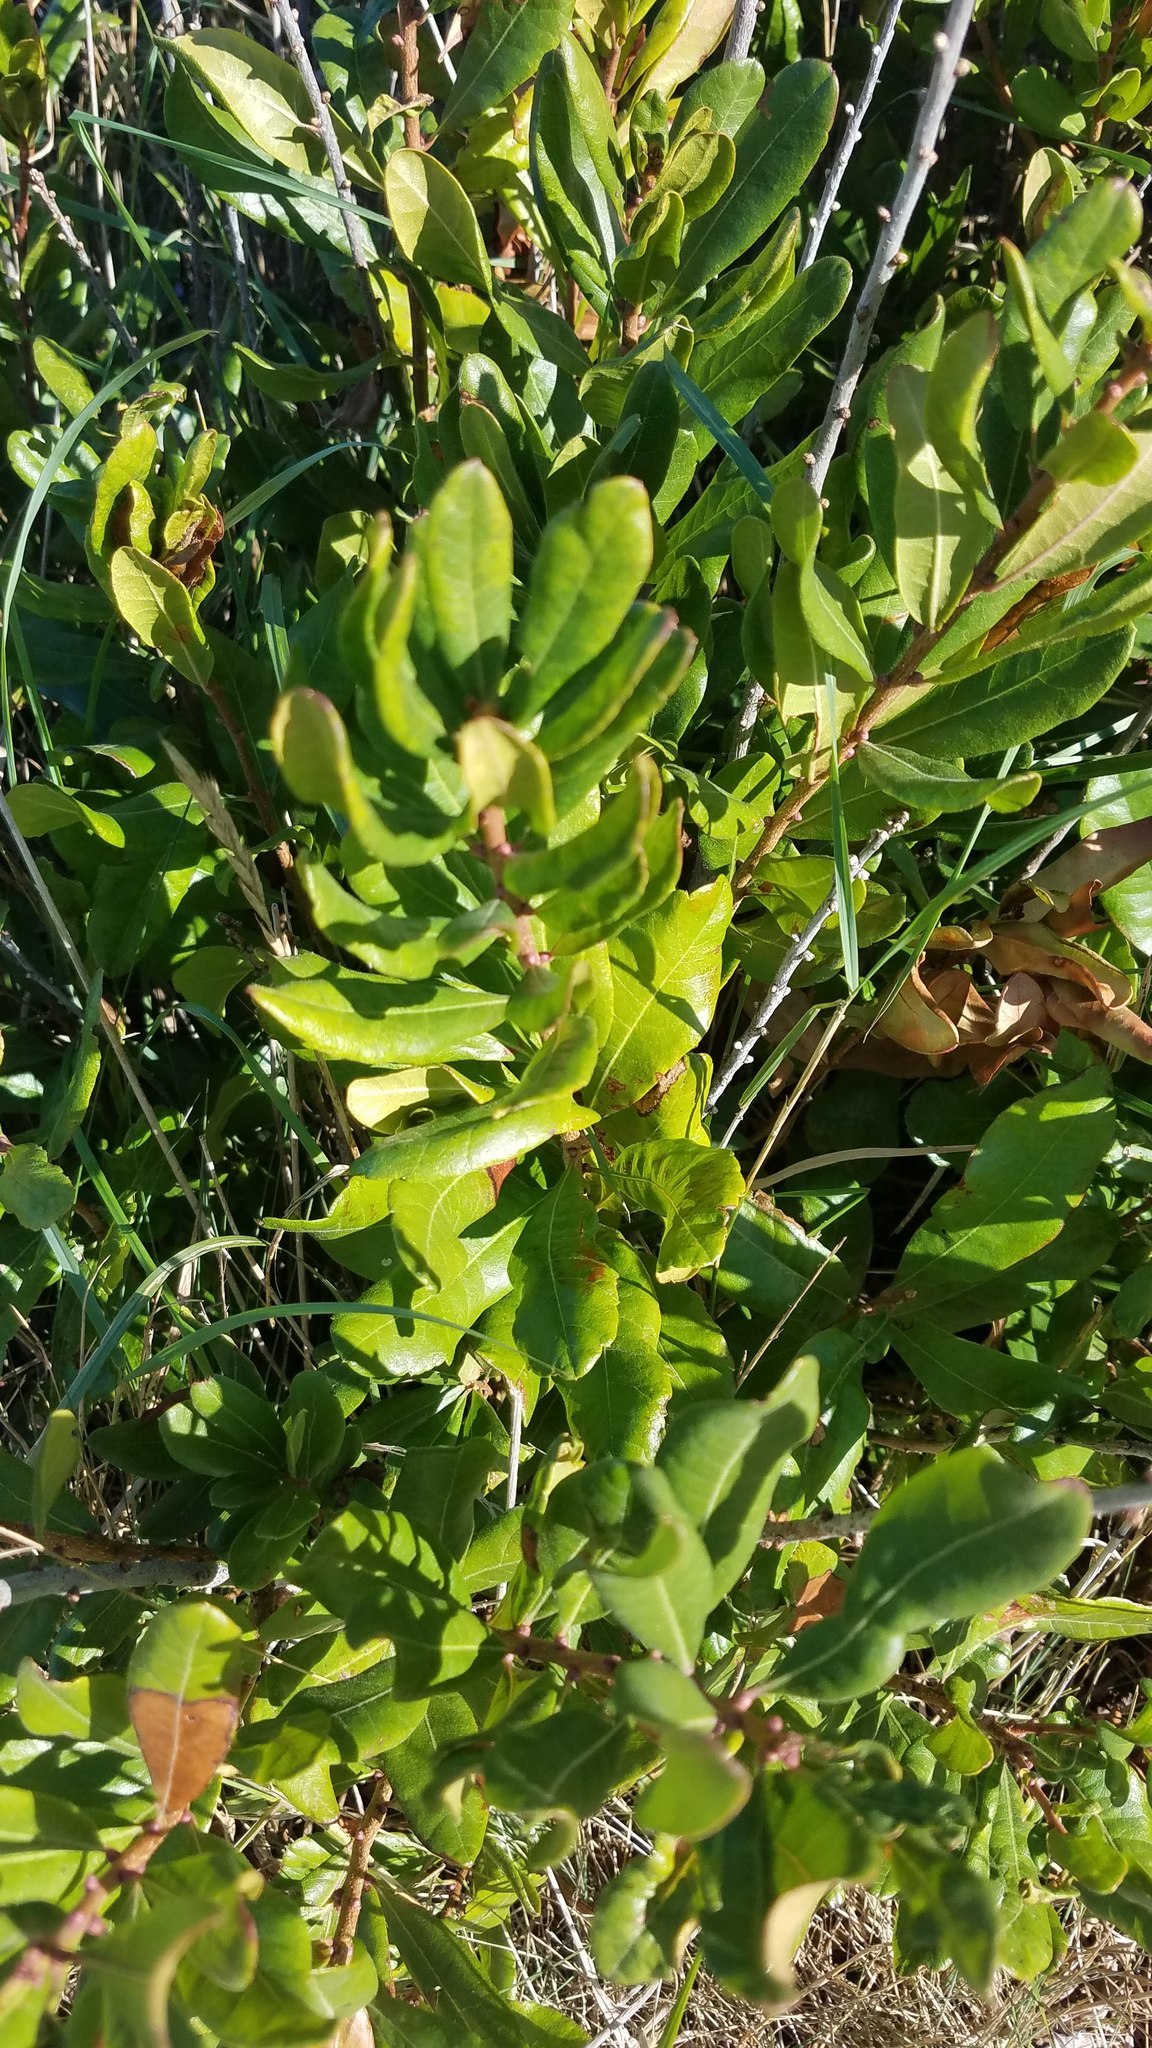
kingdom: Plantae
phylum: Tracheophyta
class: Magnoliopsida
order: Fagales
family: Myricaceae
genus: Morella
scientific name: Morella pensylvanica
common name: Northern bayberry
